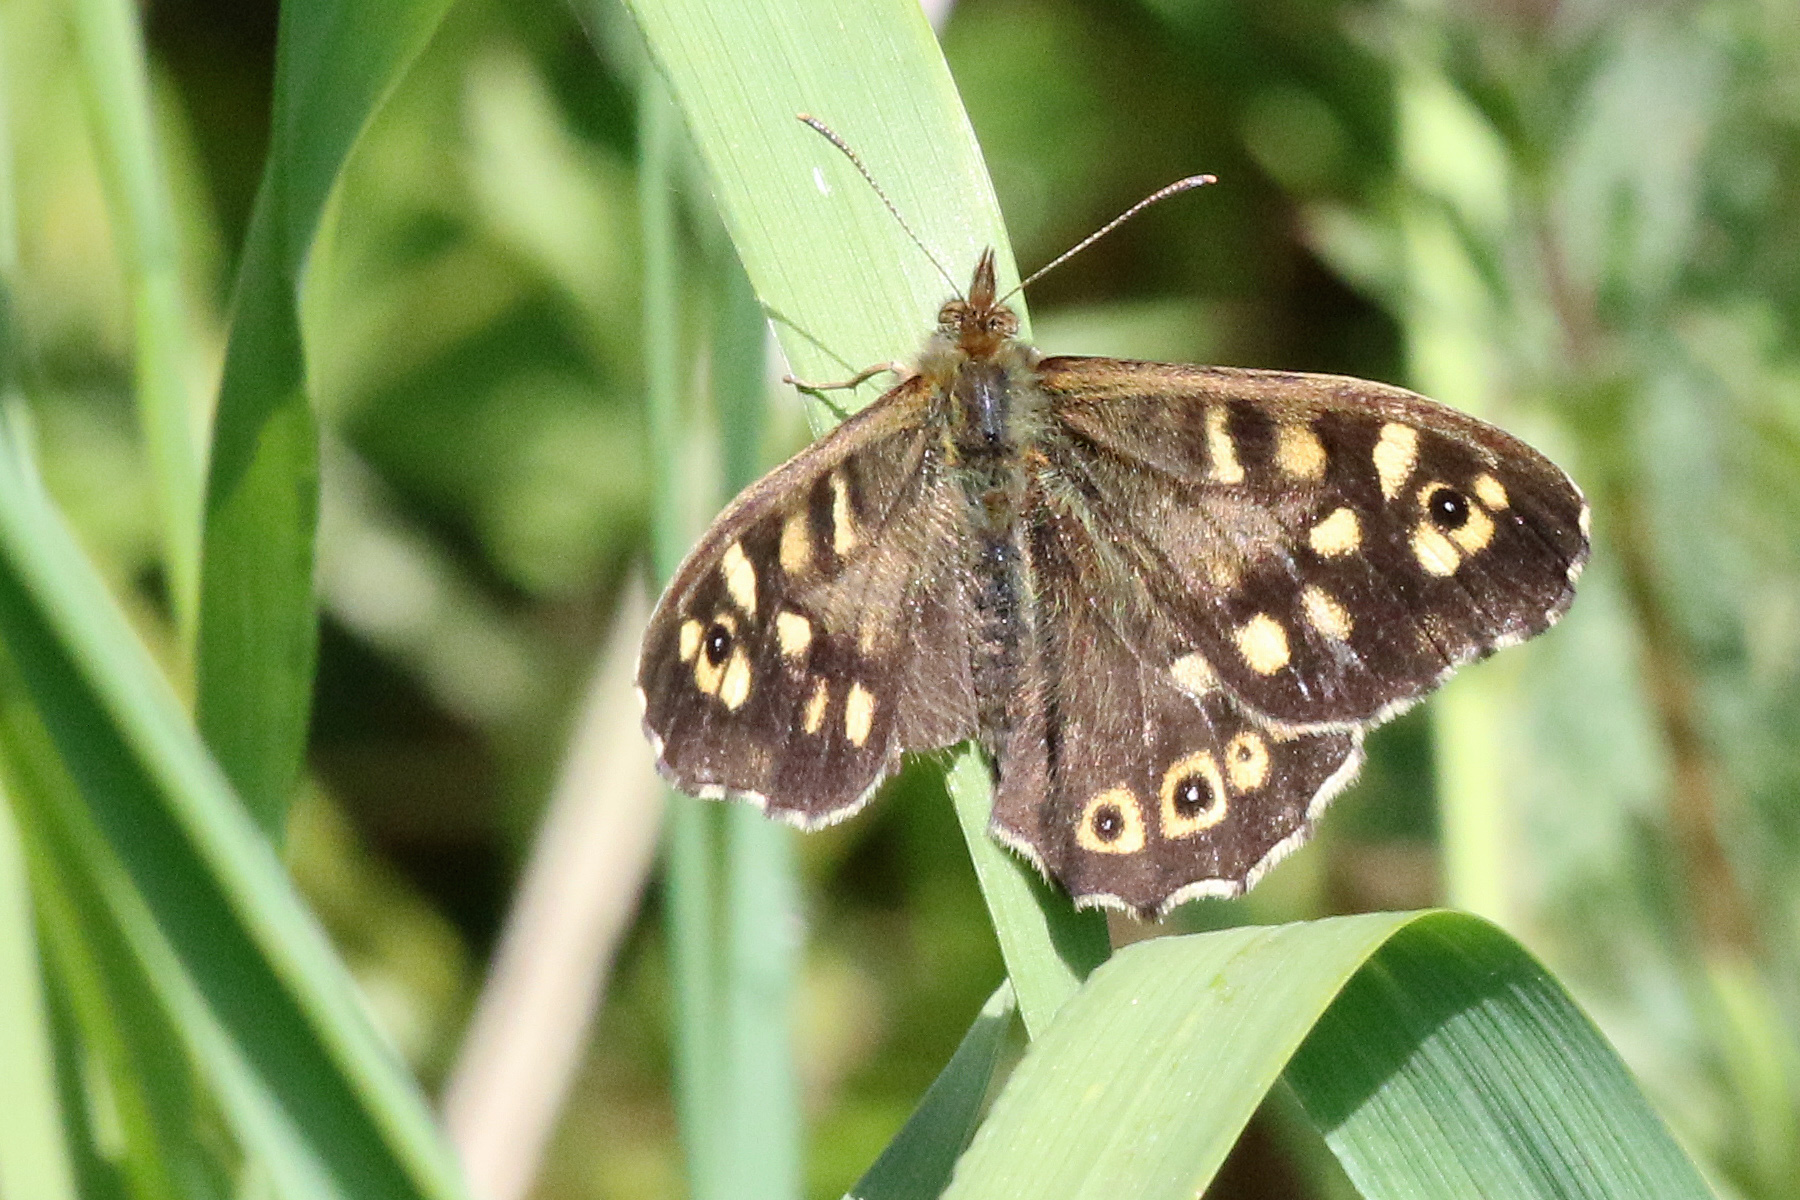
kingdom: Animalia
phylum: Arthropoda
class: Insecta
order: Lepidoptera
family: Nymphalidae
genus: Pararge
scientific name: Pararge aegeria
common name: Speckled wood
